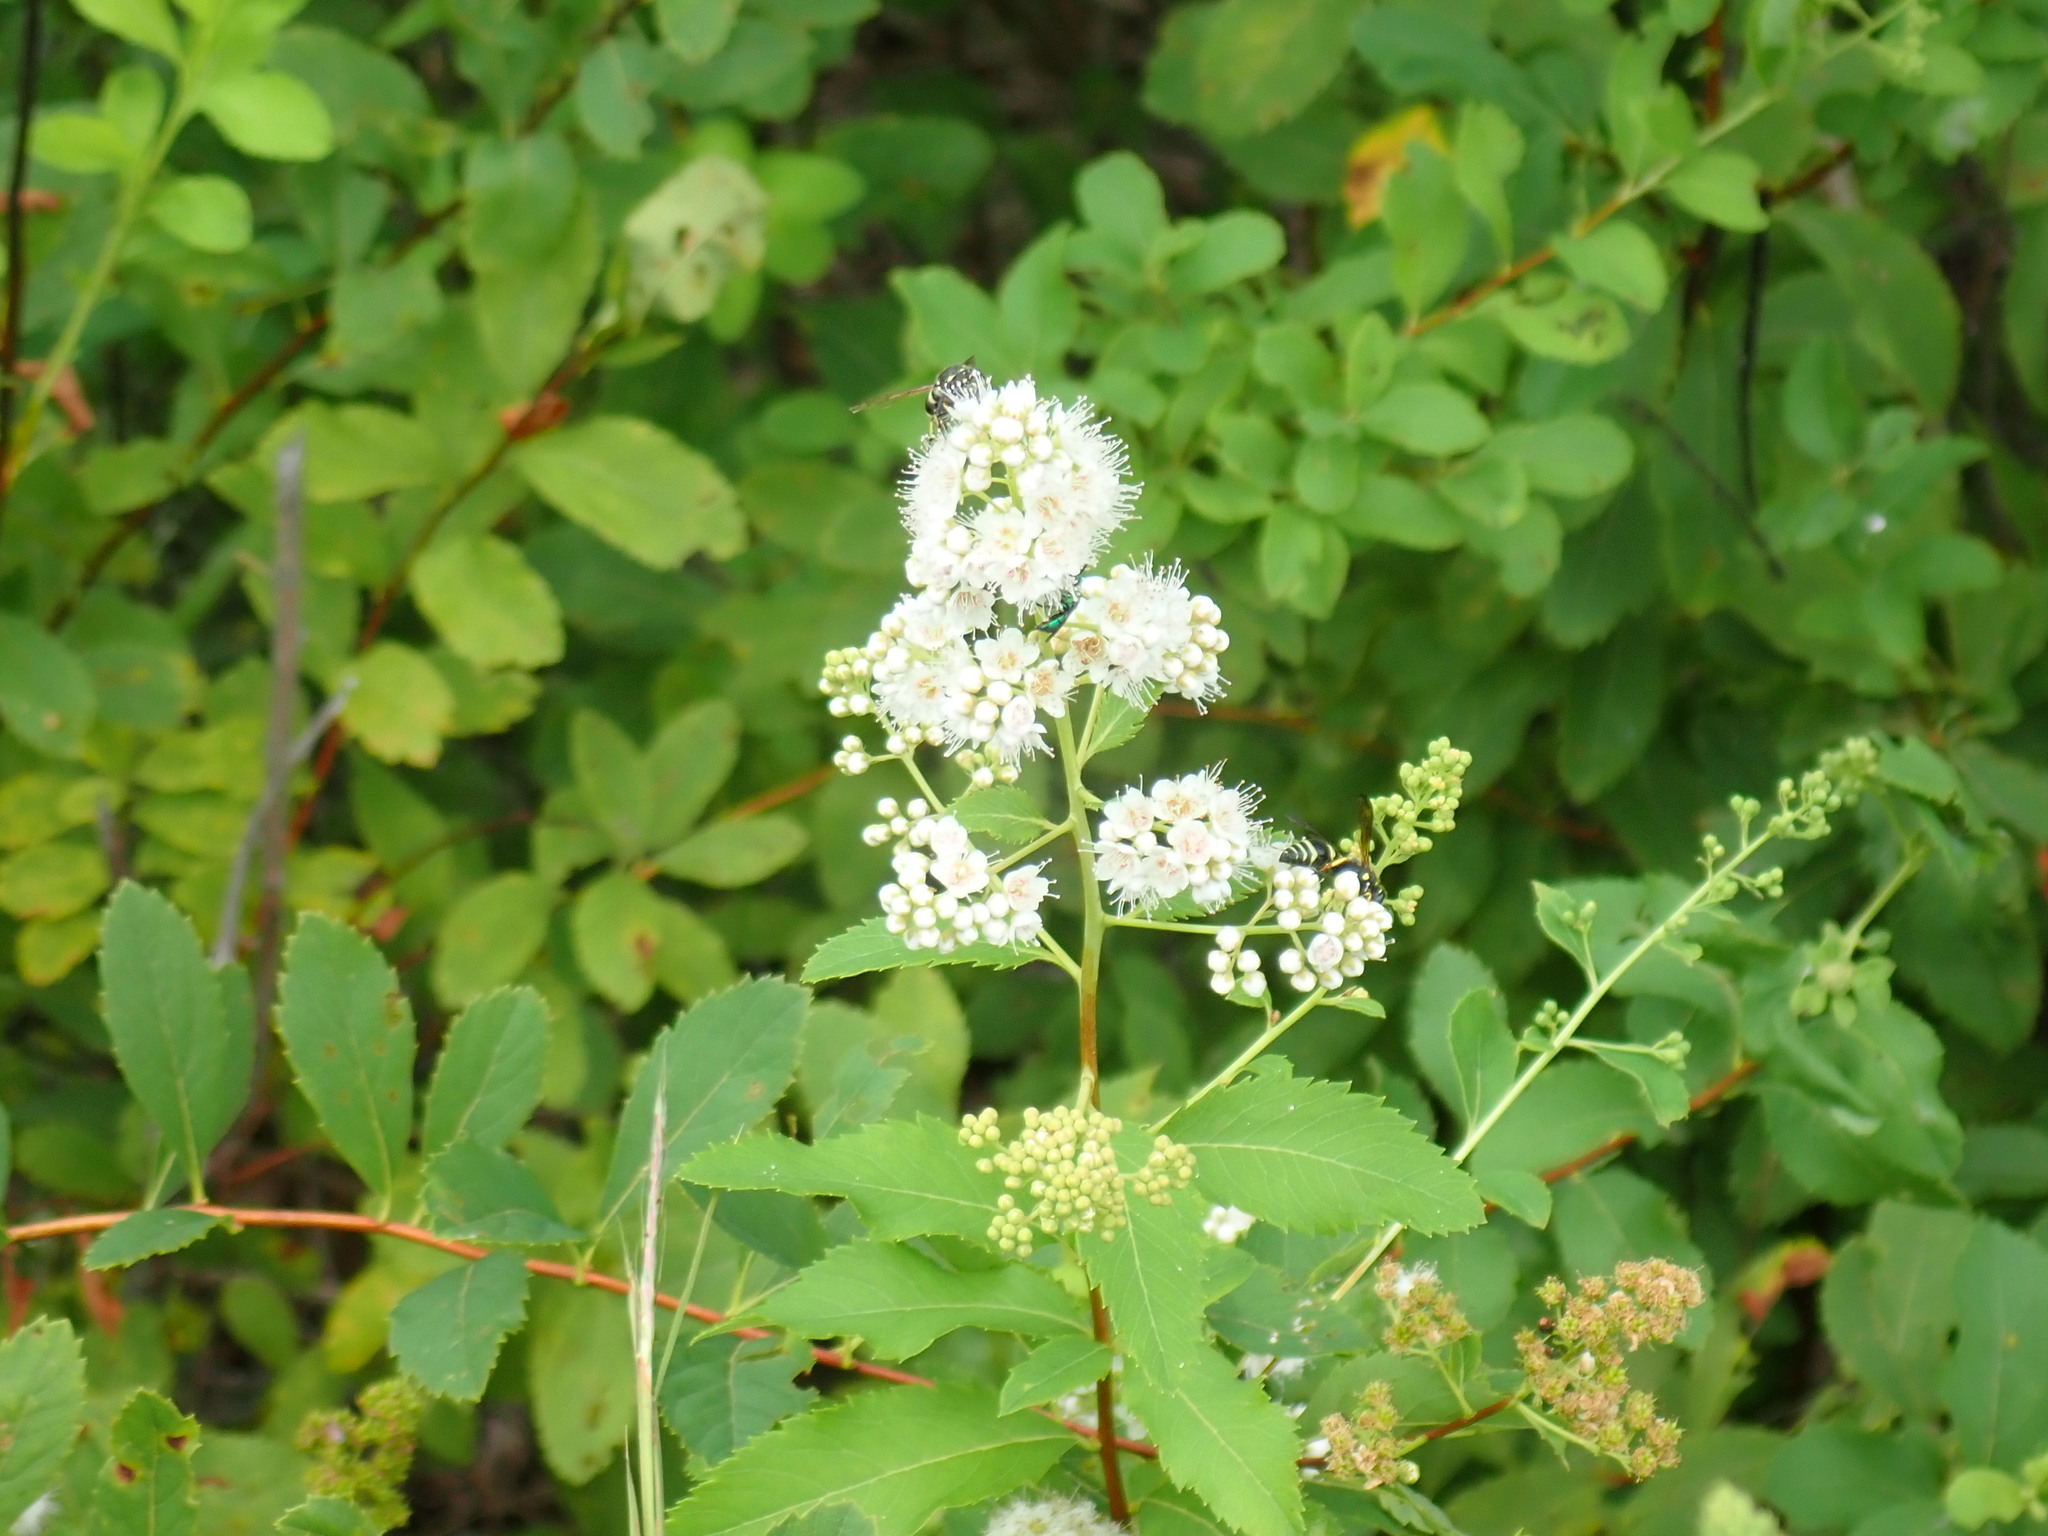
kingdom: Plantae
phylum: Tracheophyta
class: Magnoliopsida
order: Rosales
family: Rosaceae
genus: Spiraea
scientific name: Spiraea alba
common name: Pale bridewort
